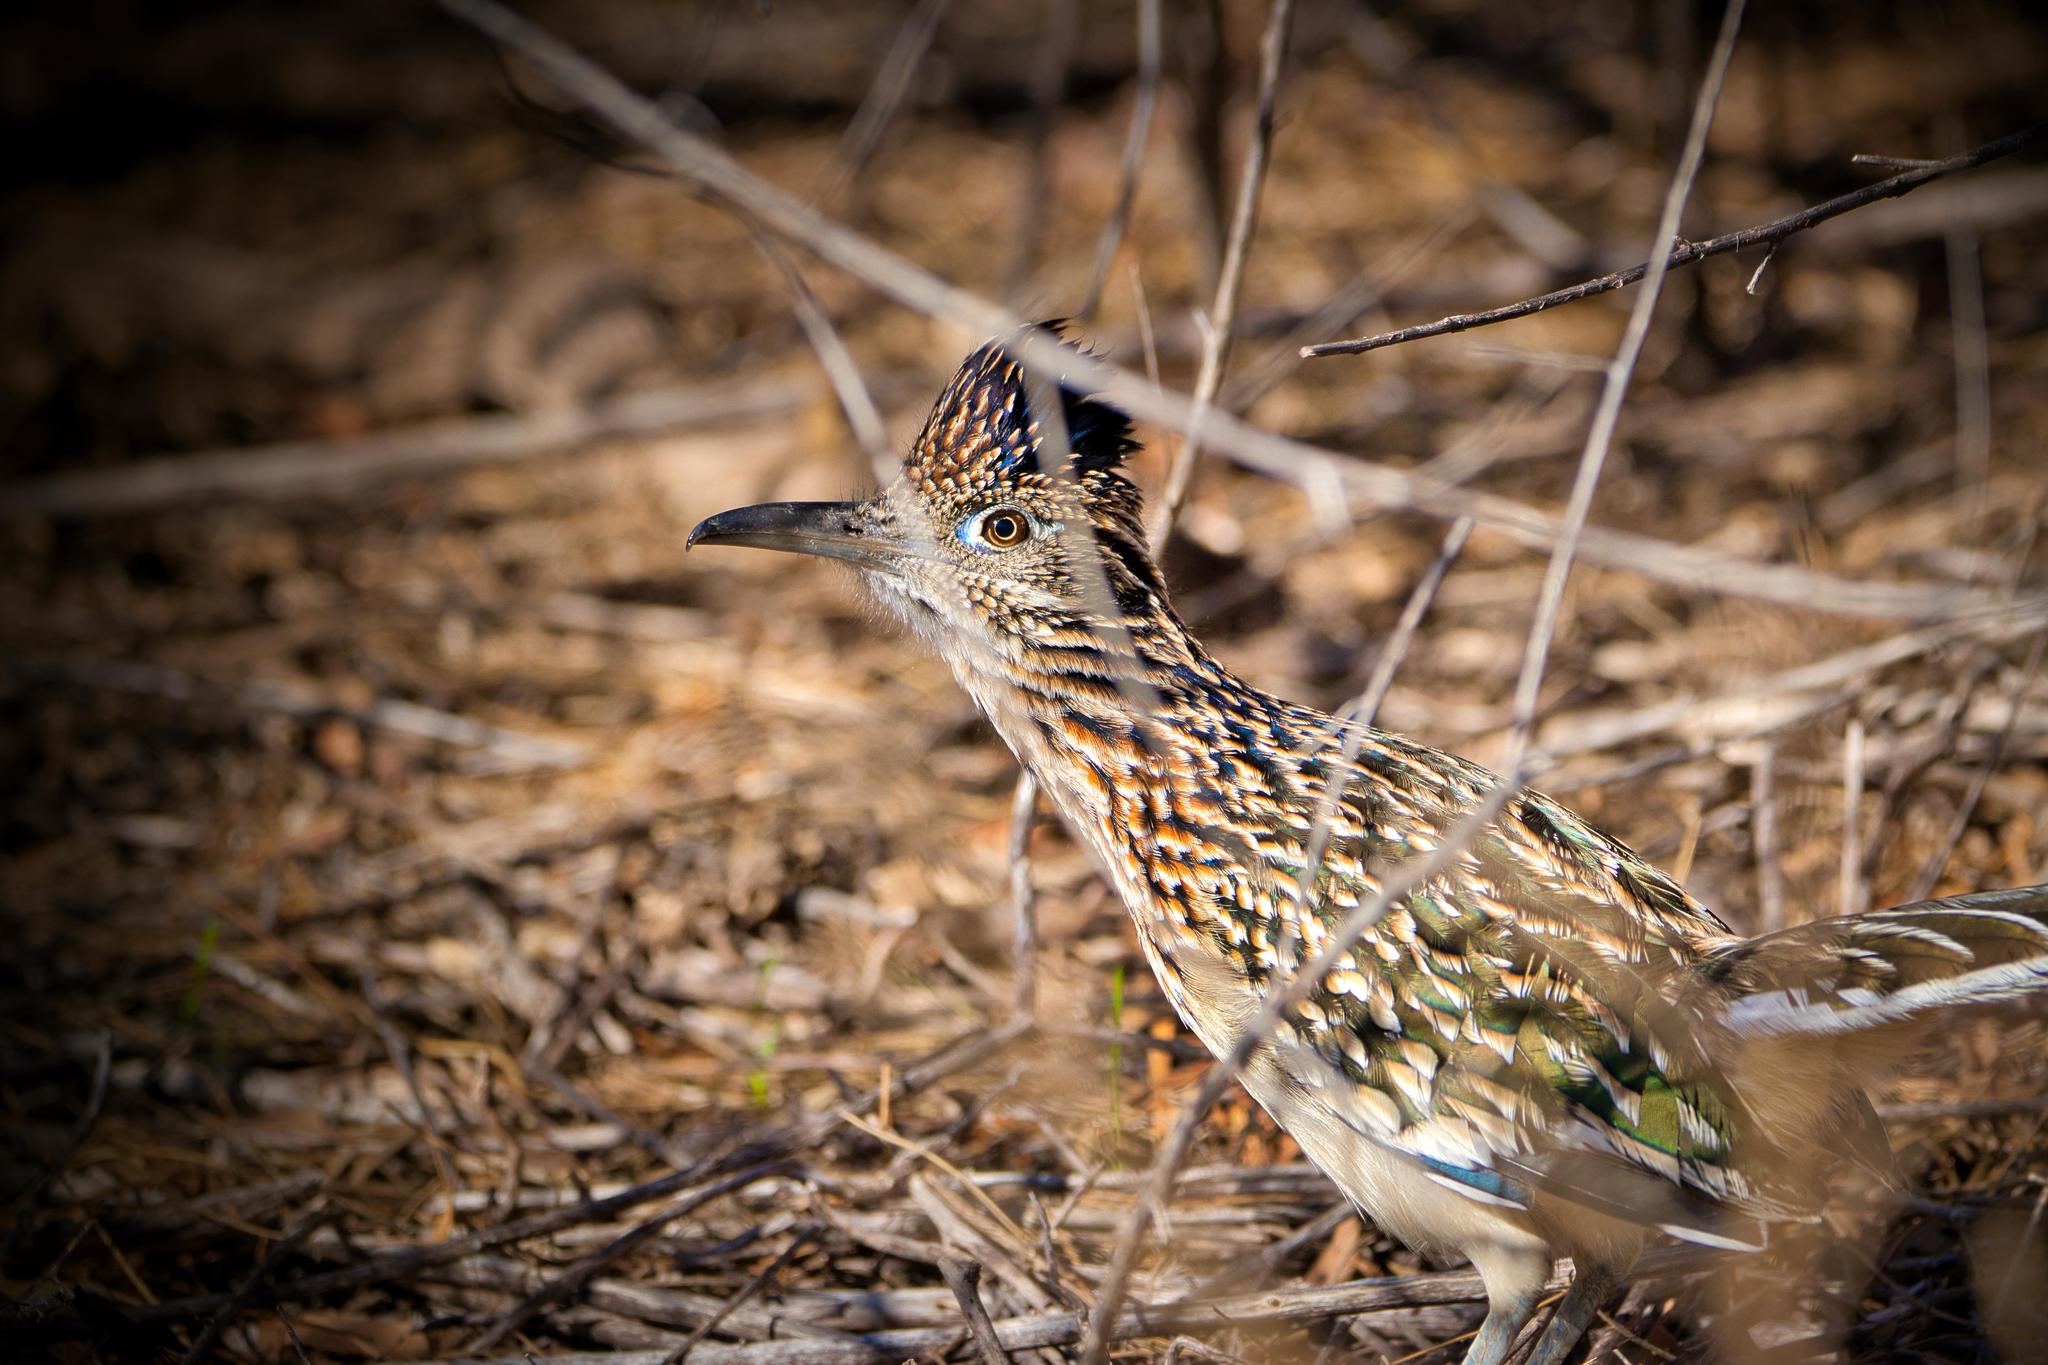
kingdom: Animalia
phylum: Chordata
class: Aves
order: Cuculiformes
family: Cuculidae
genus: Geococcyx
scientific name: Geococcyx californianus
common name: Greater roadrunner
